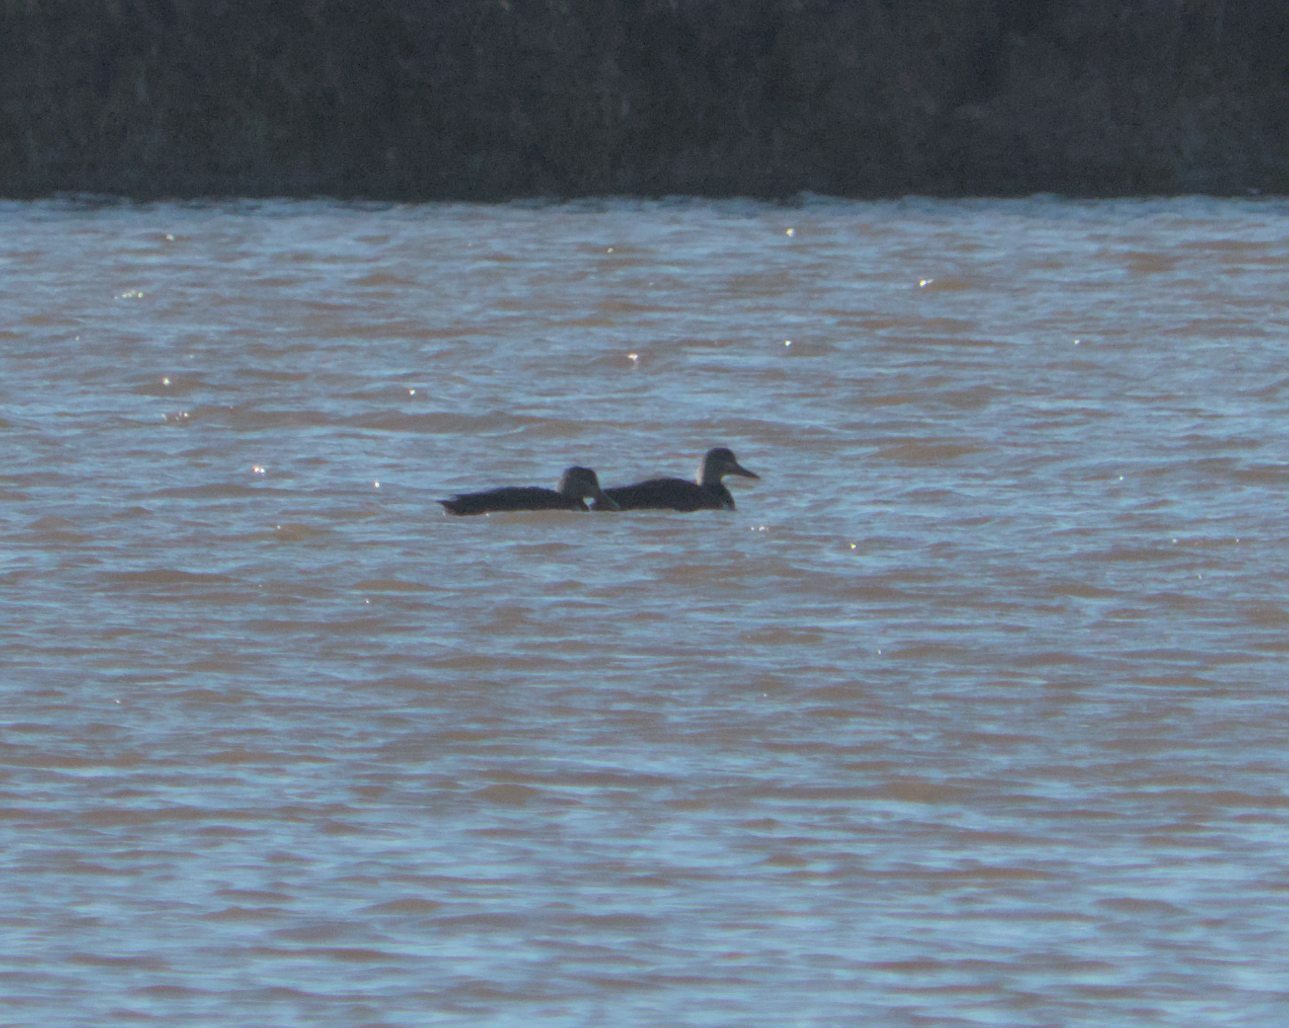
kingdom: Animalia
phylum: Chordata
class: Aves
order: Anseriformes
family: Anatidae
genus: Anas
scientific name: Anas rubripes
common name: American black duck
